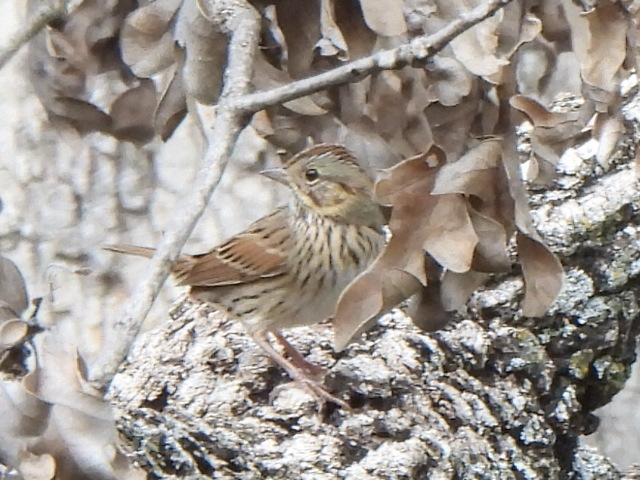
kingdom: Animalia
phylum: Chordata
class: Aves
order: Passeriformes
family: Passerellidae
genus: Melospiza
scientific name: Melospiza lincolnii
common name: Lincoln's sparrow
